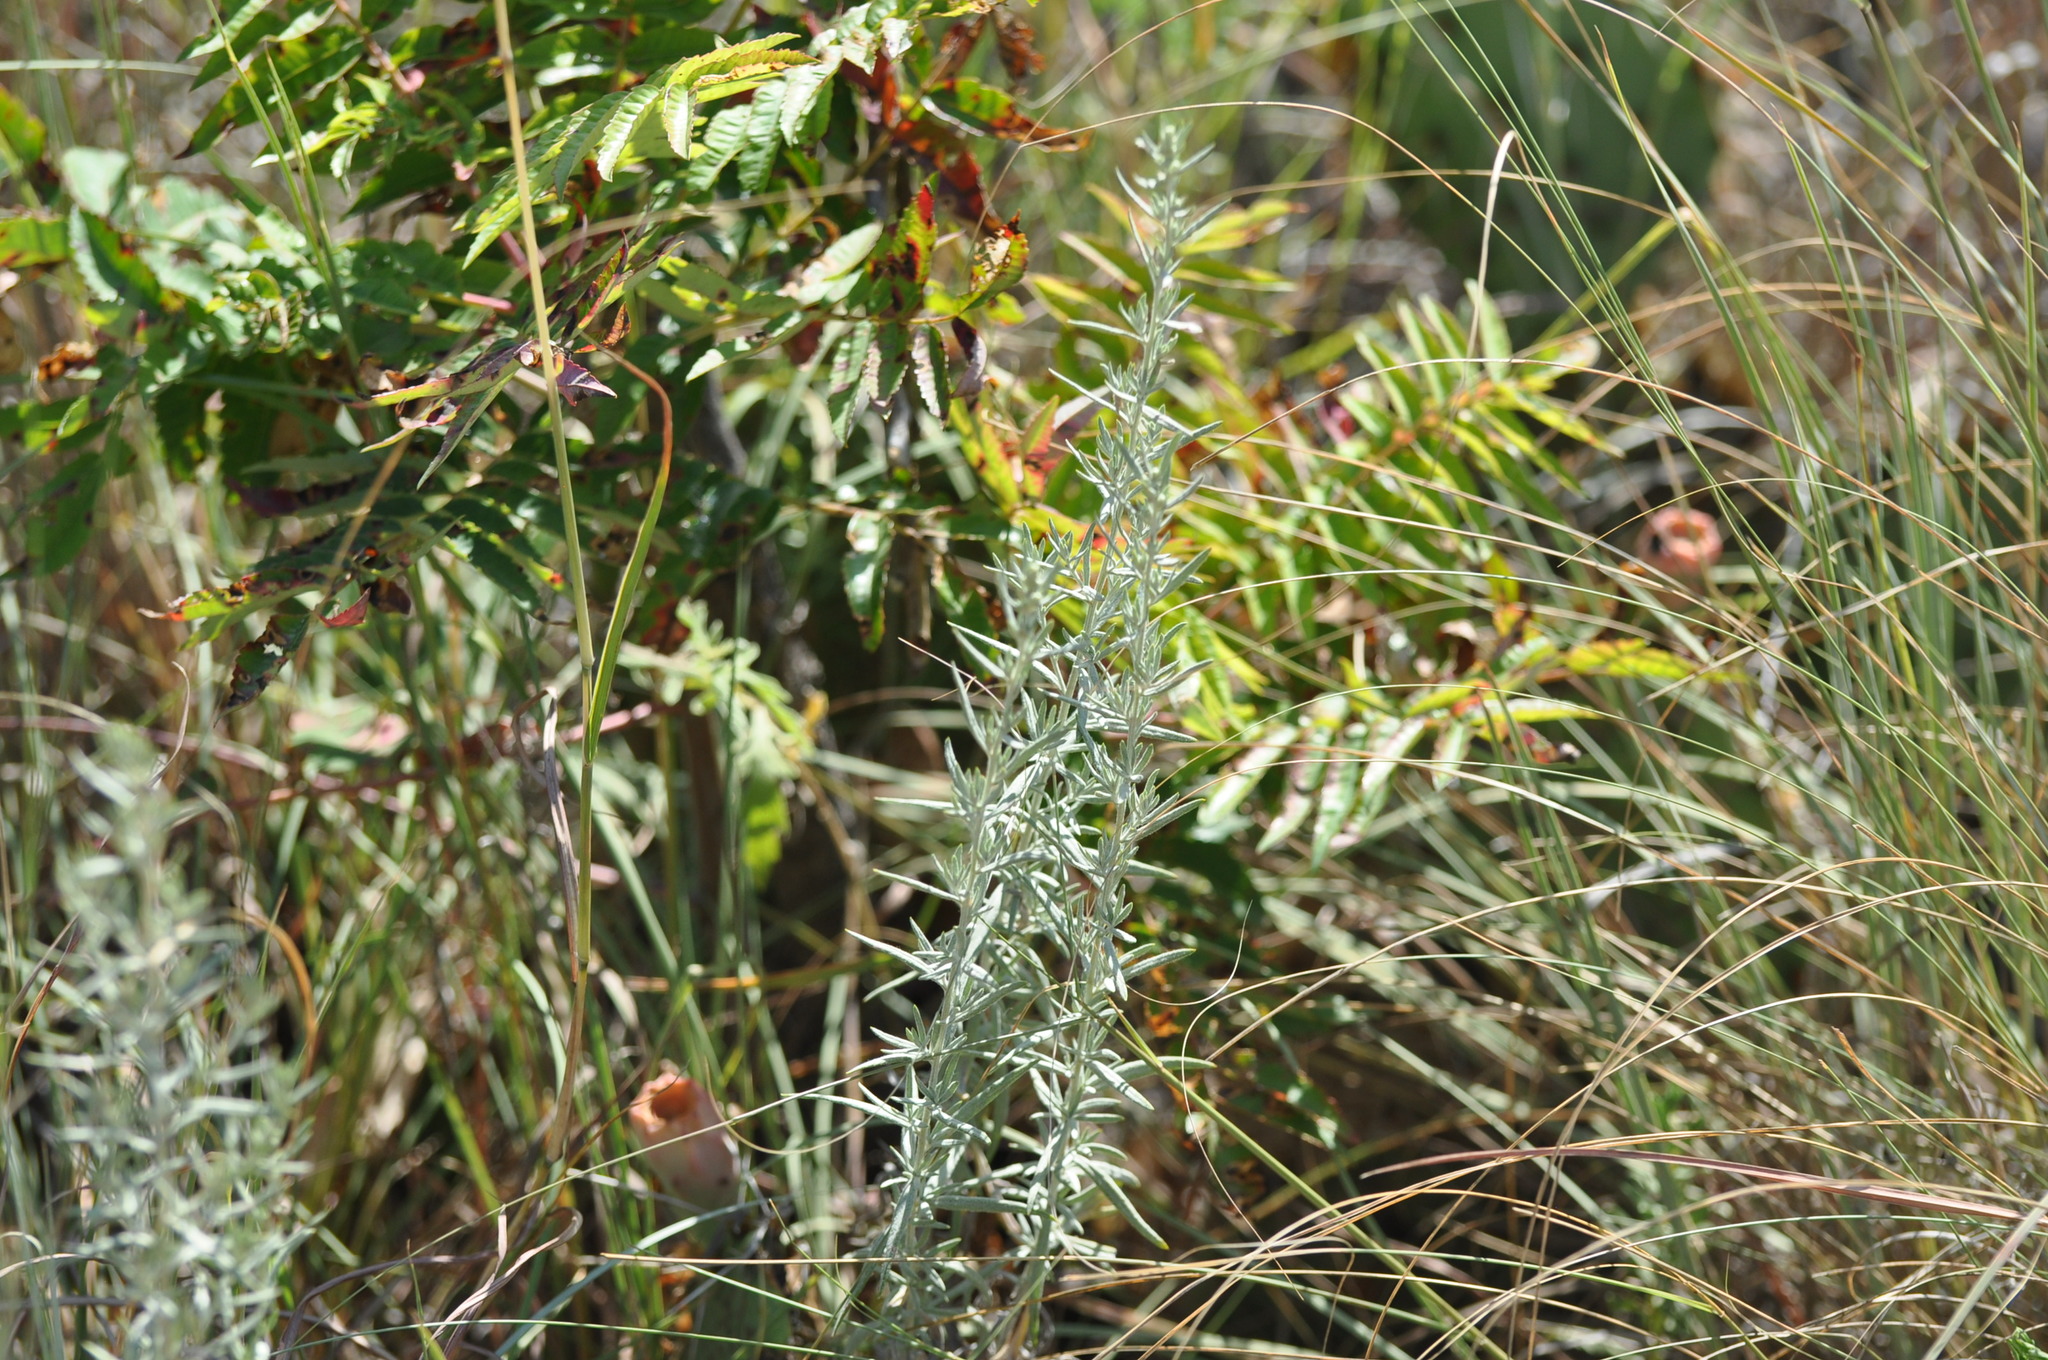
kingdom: Plantae
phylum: Tracheophyta
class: Magnoliopsida
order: Asterales
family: Asteraceae
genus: Artemisia
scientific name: Artemisia ludoviciana
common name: Western mugwort
